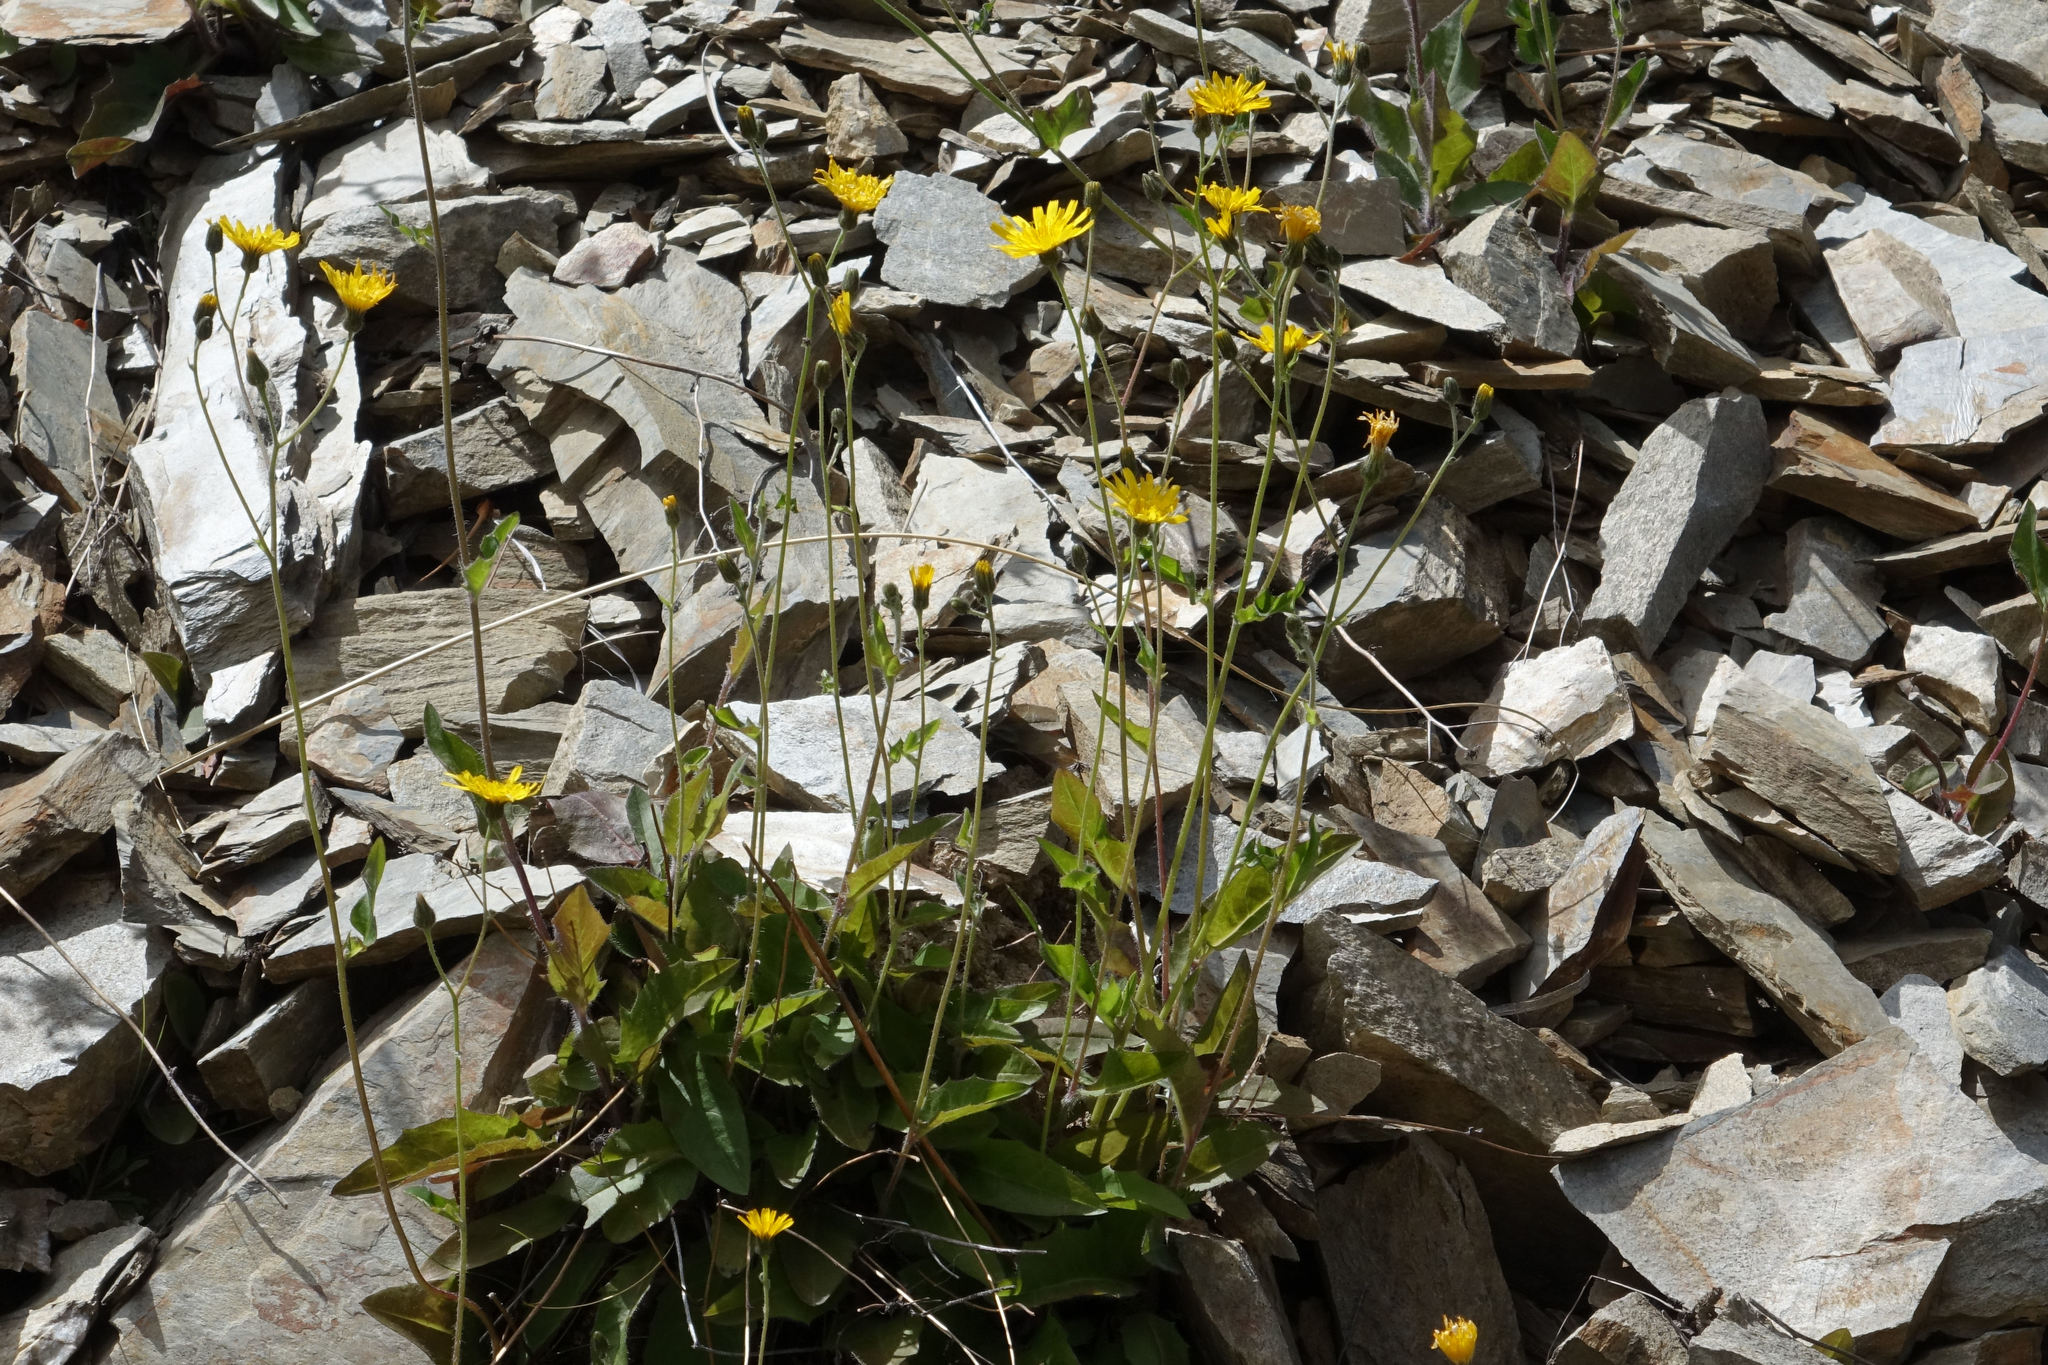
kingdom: Plantae
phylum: Tracheophyta
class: Magnoliopsida
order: Asterales
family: Asteraceae
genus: Hieracium
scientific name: Hieracium lepidulum
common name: Irregular-toothed hawkweed
